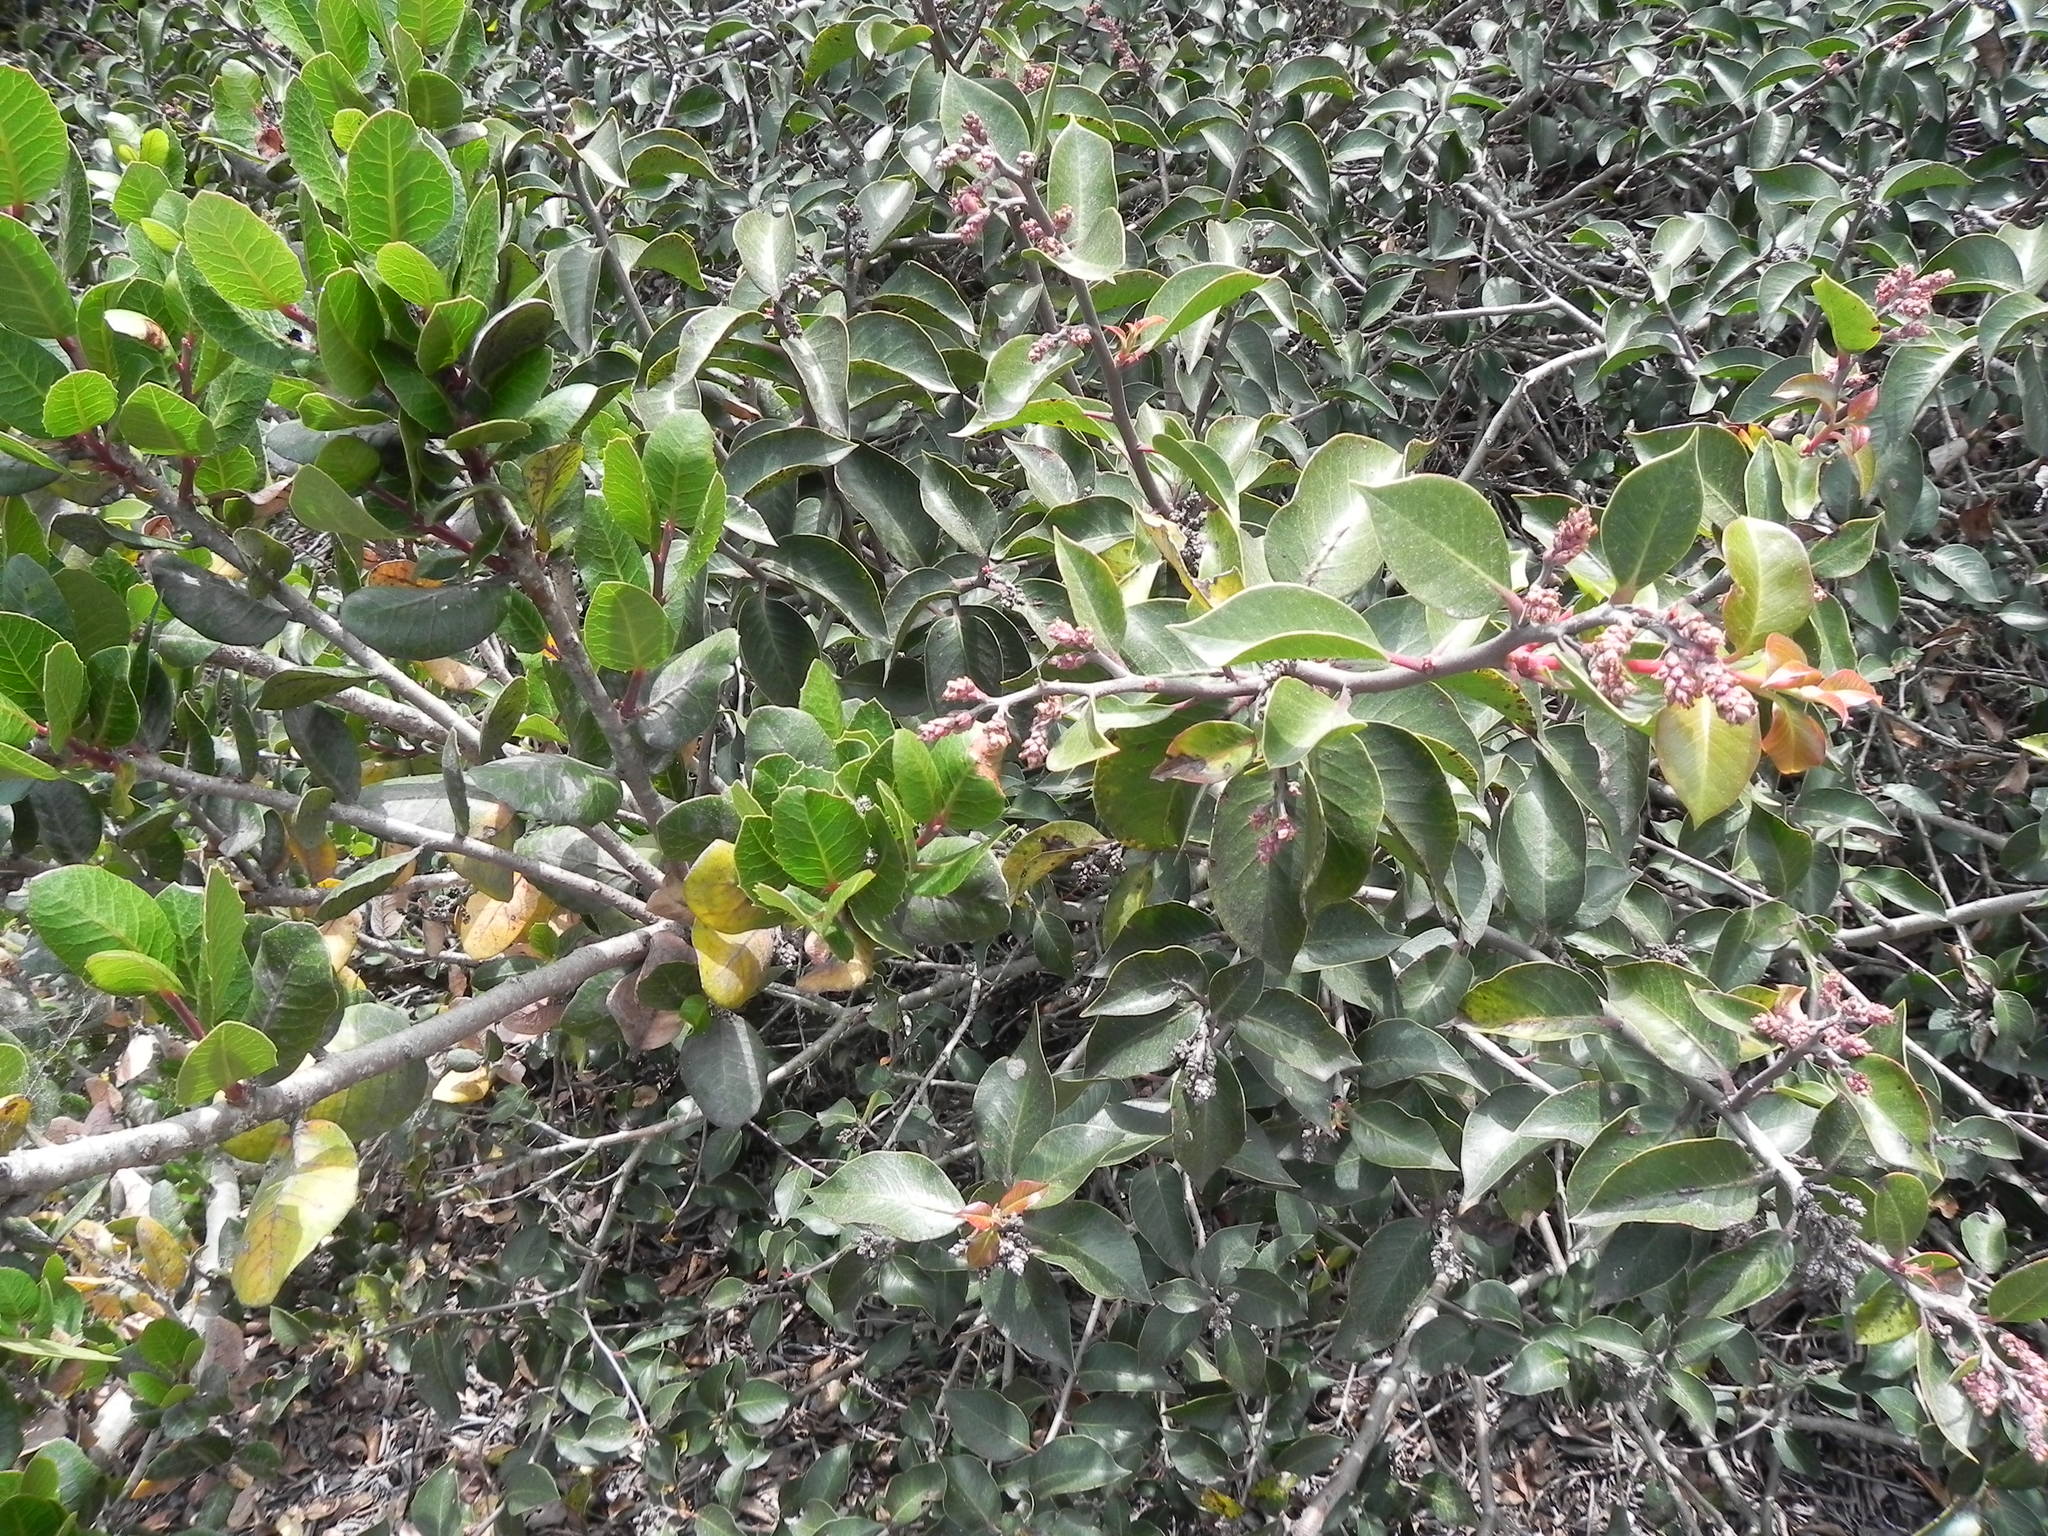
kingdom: Plantae
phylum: Tracheophyta
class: Magnoliopsida
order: Sapindales
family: Anacardiaceae
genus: Rhus
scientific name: Rhus ovata
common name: Sugar sumac
